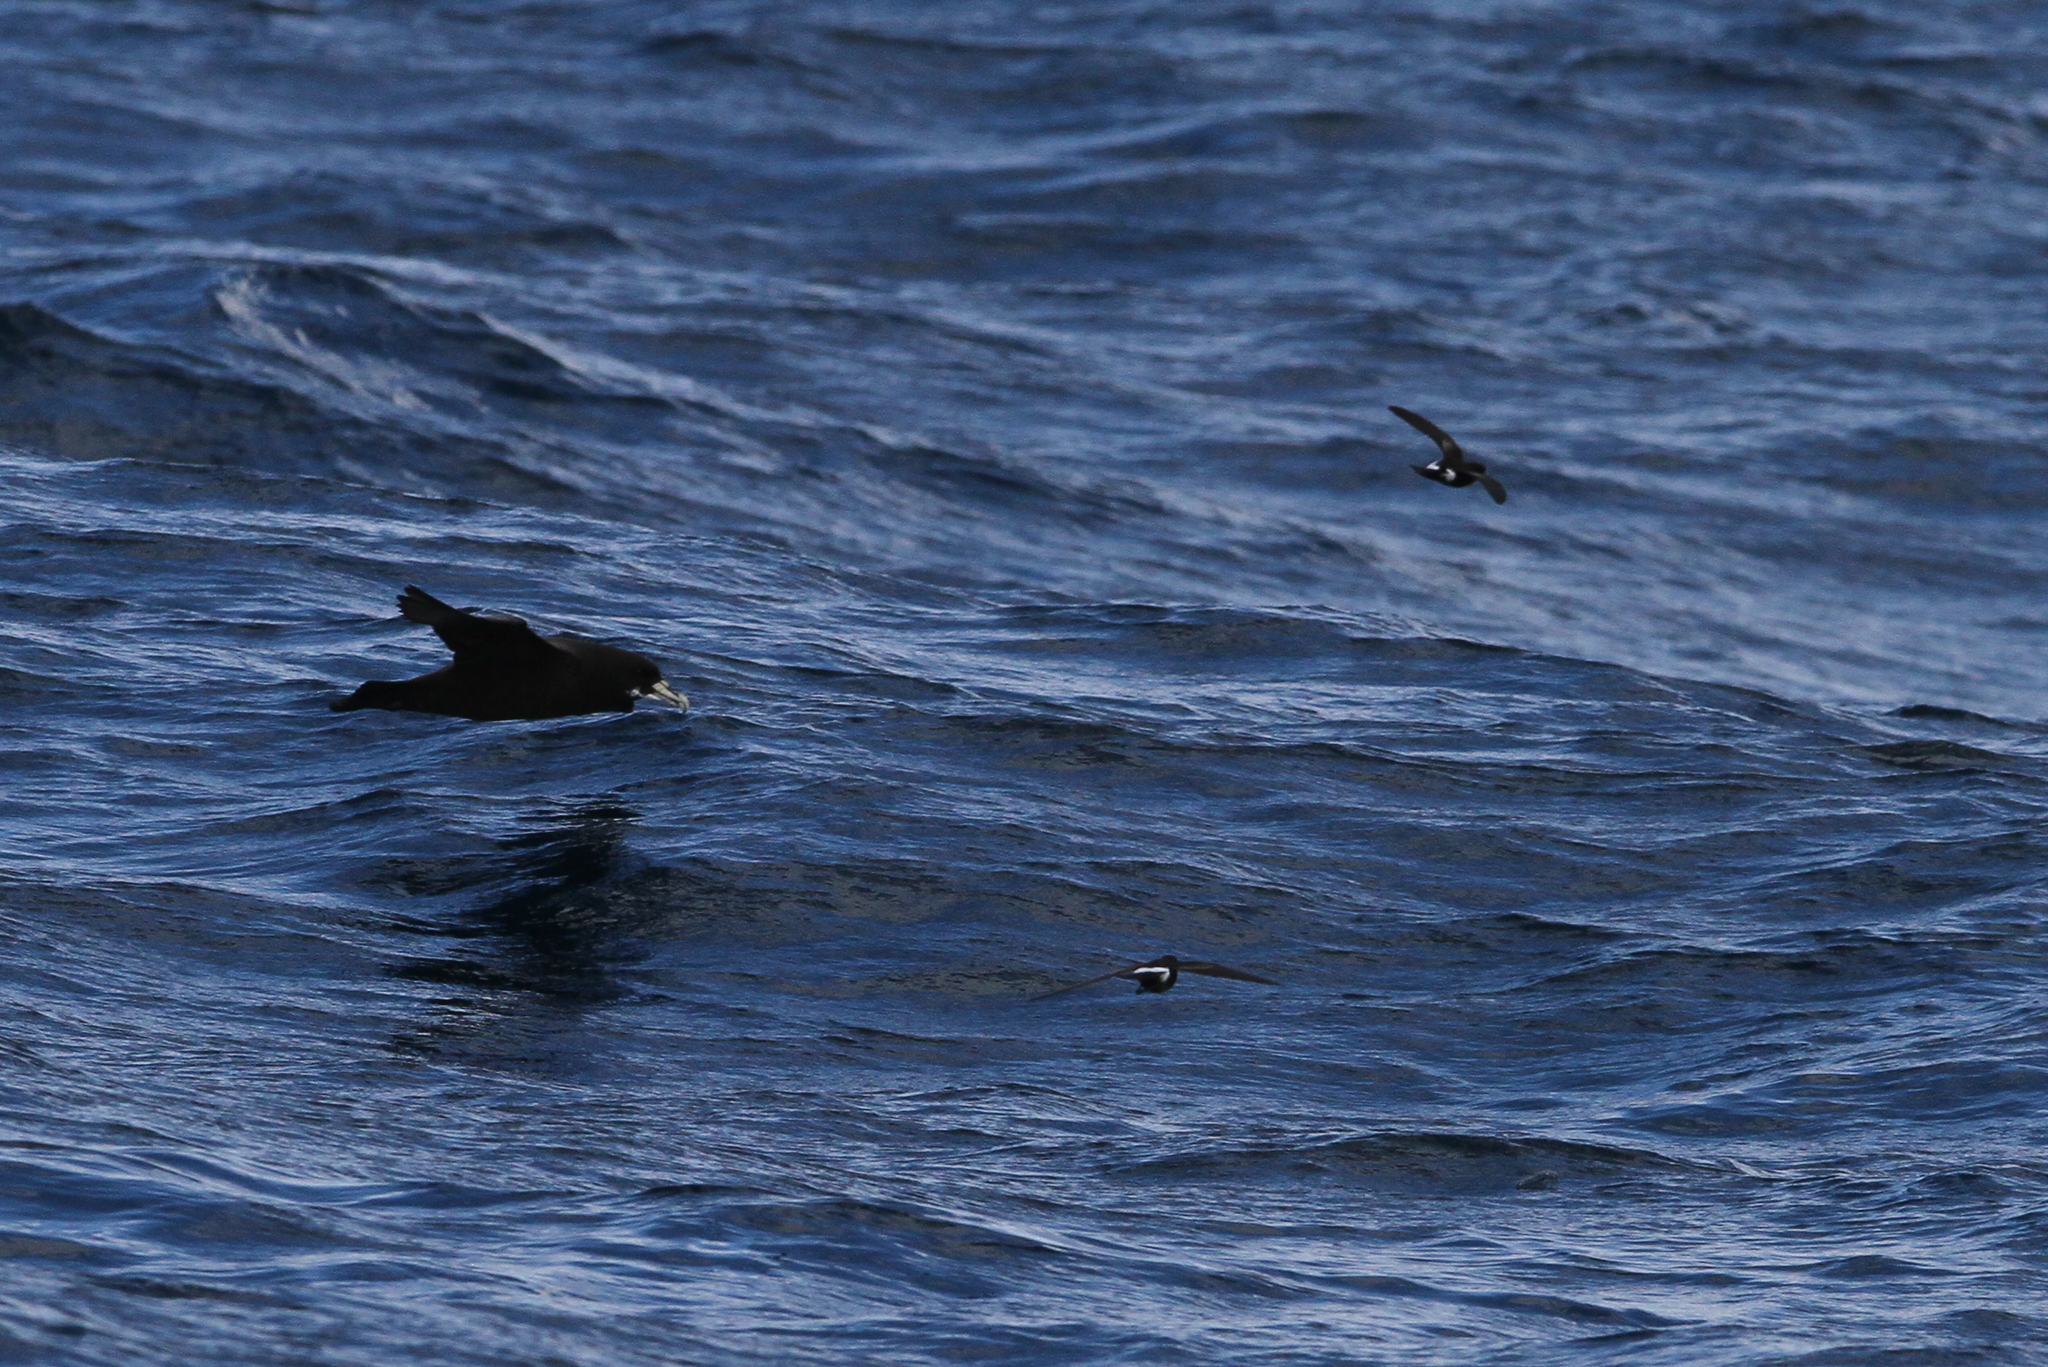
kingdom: Animalia
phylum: Chordata
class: Aves
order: Procellariiformes
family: Hydrobatidae
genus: Oceanites
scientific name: Oceanites oceanicus
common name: Wilson's storm petrel
